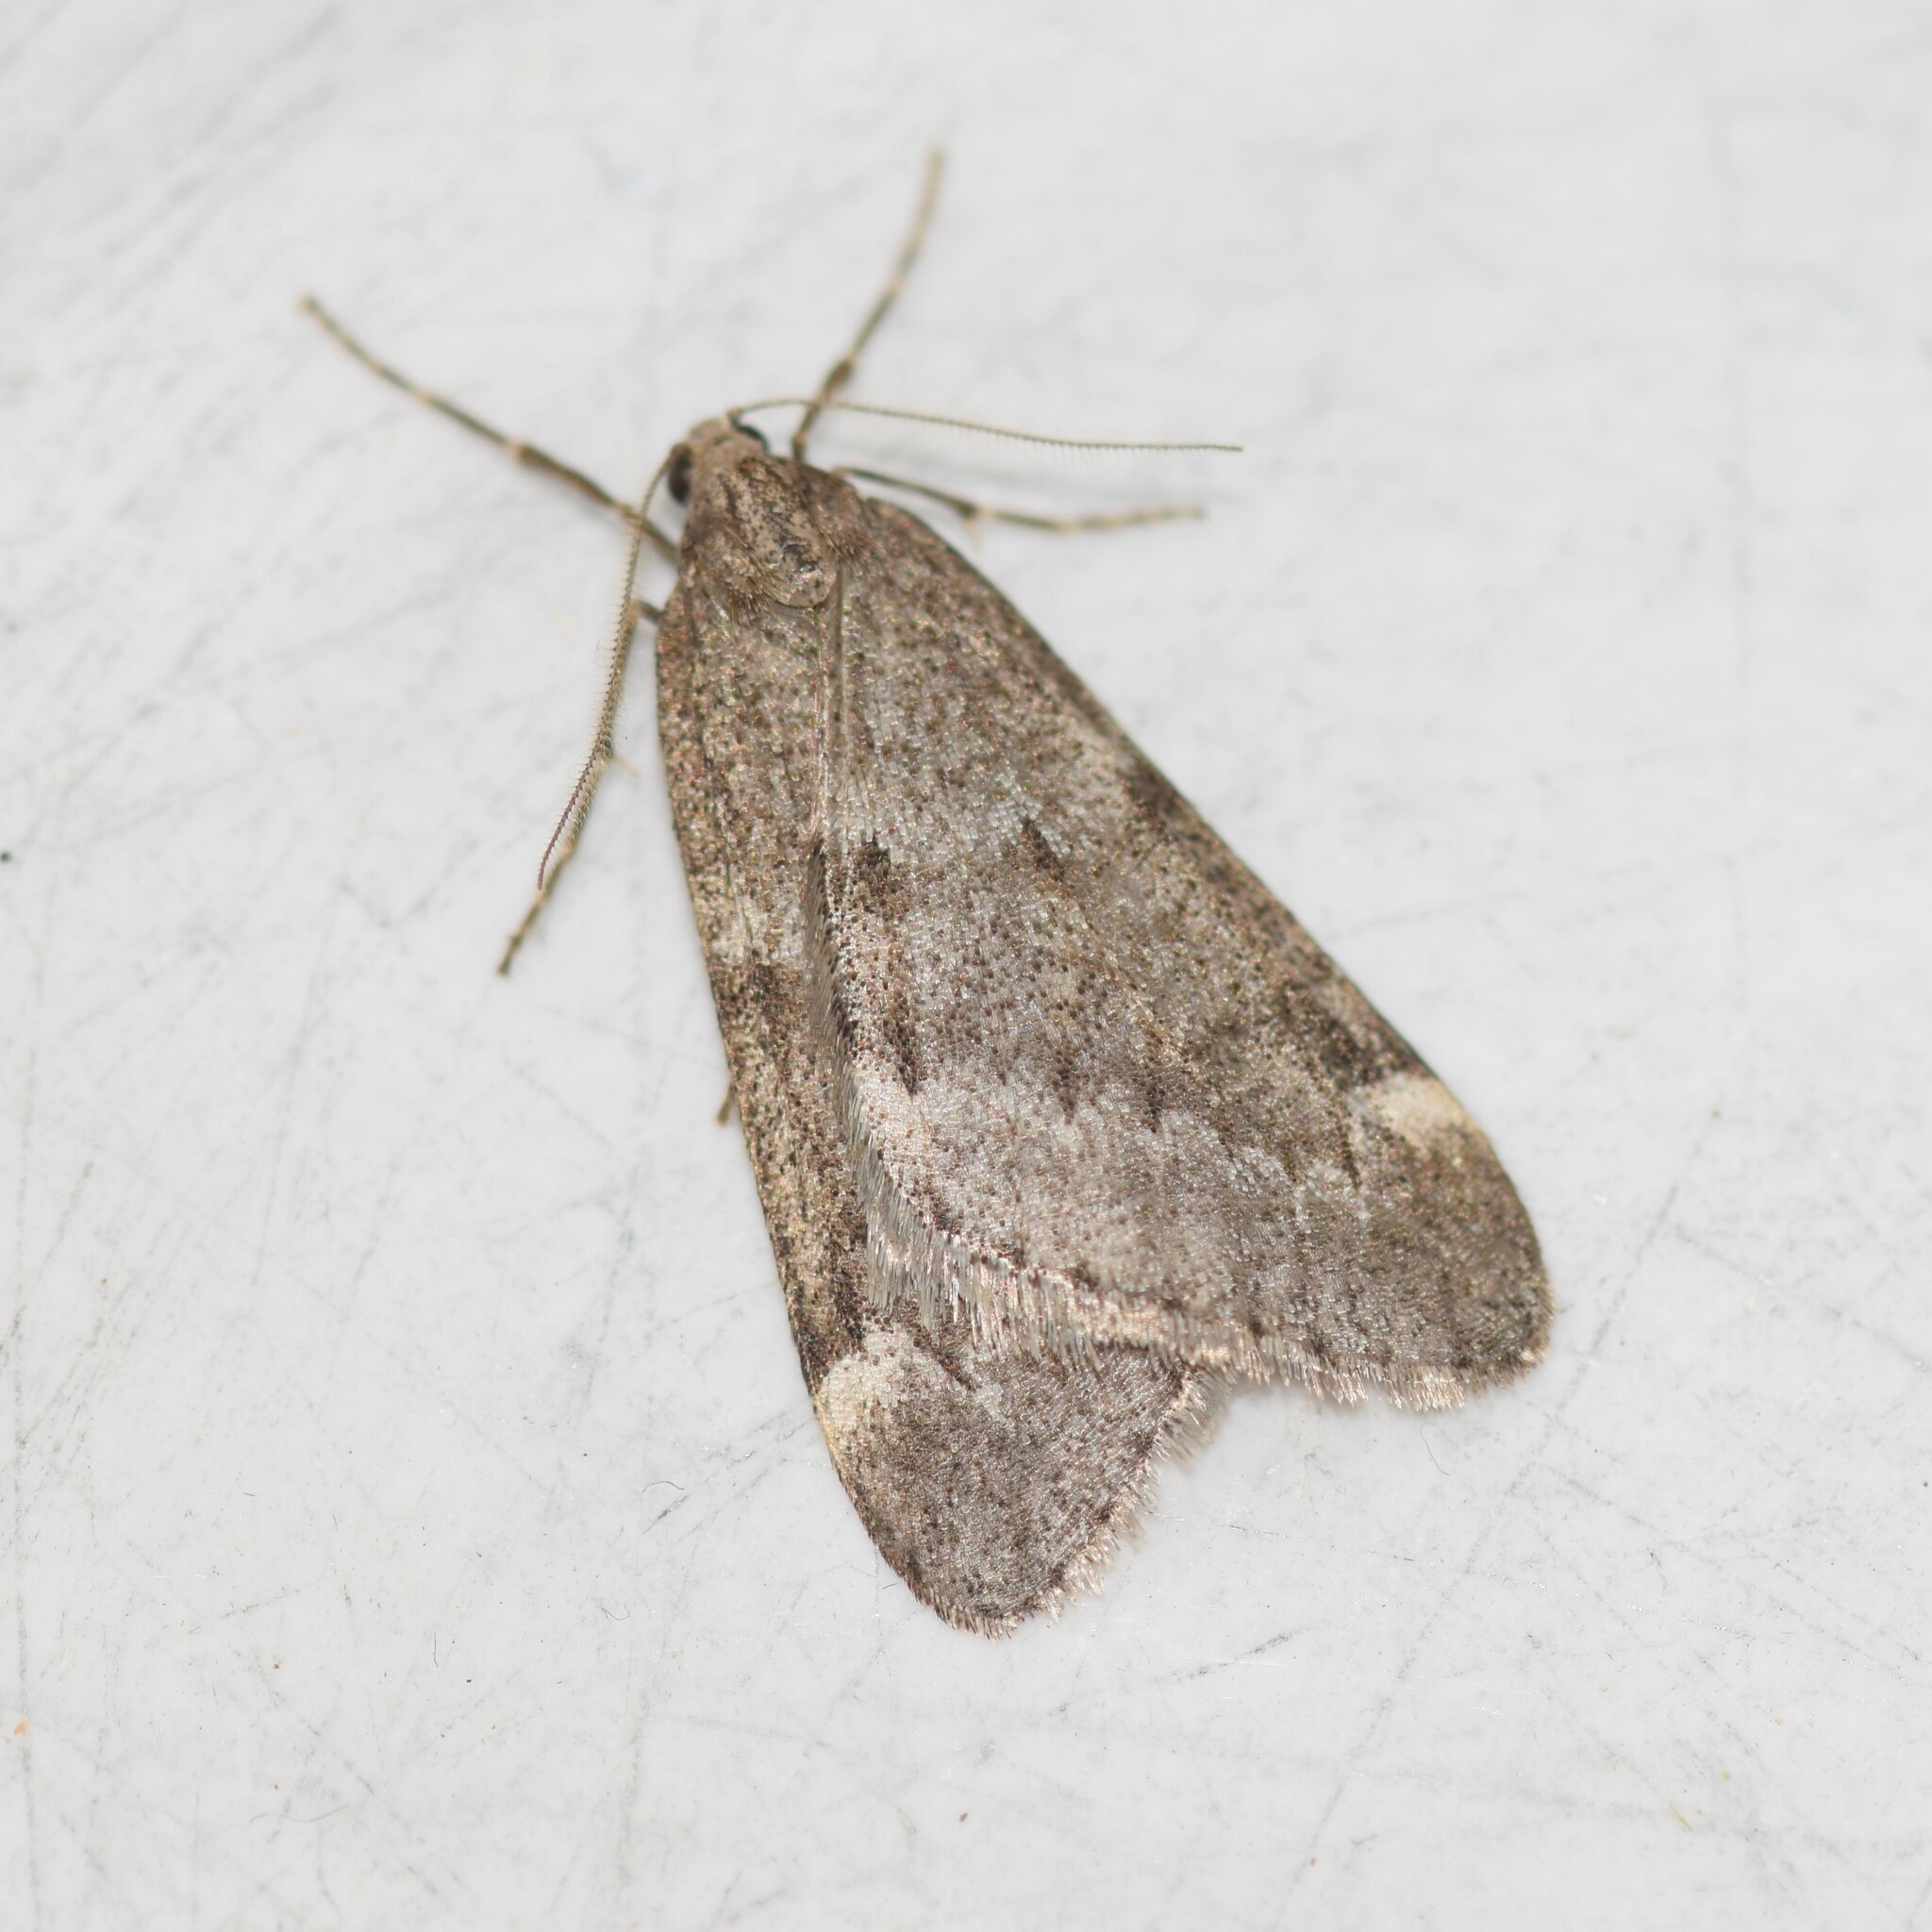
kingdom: Animalia
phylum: Arthropoda
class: Insecta
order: Lepidoptera
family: Geometridae
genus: Alsophila
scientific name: Alsophila pometaria
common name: Fall cankerworm
